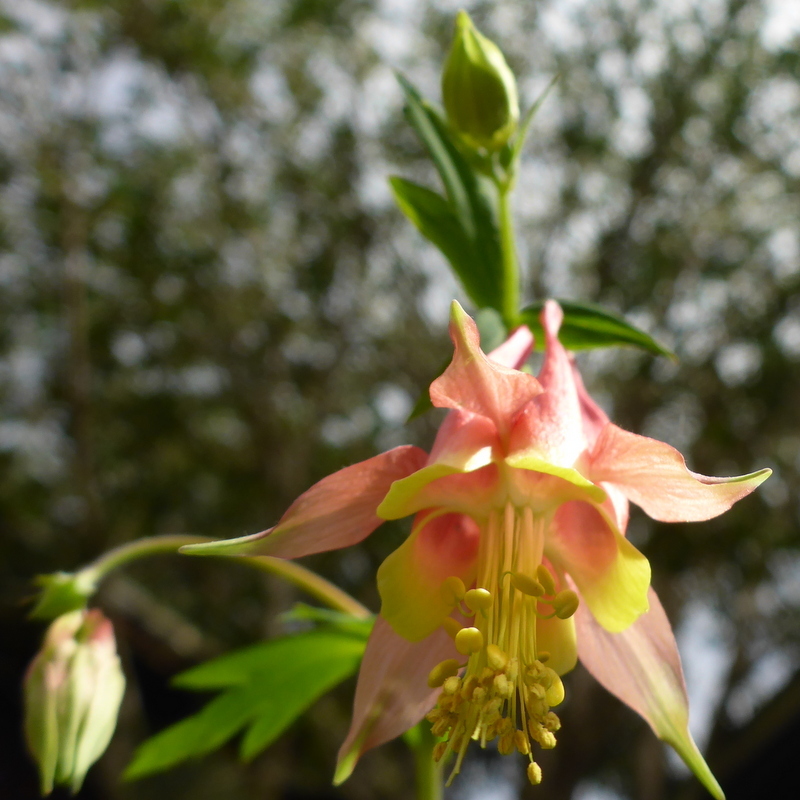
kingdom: Plantae
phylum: Tracheophyta
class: Magnoliopsida
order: Ranunculales
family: Ranunculaceae
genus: Aquilegia
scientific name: Aquilegia canadensis
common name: American columbine
